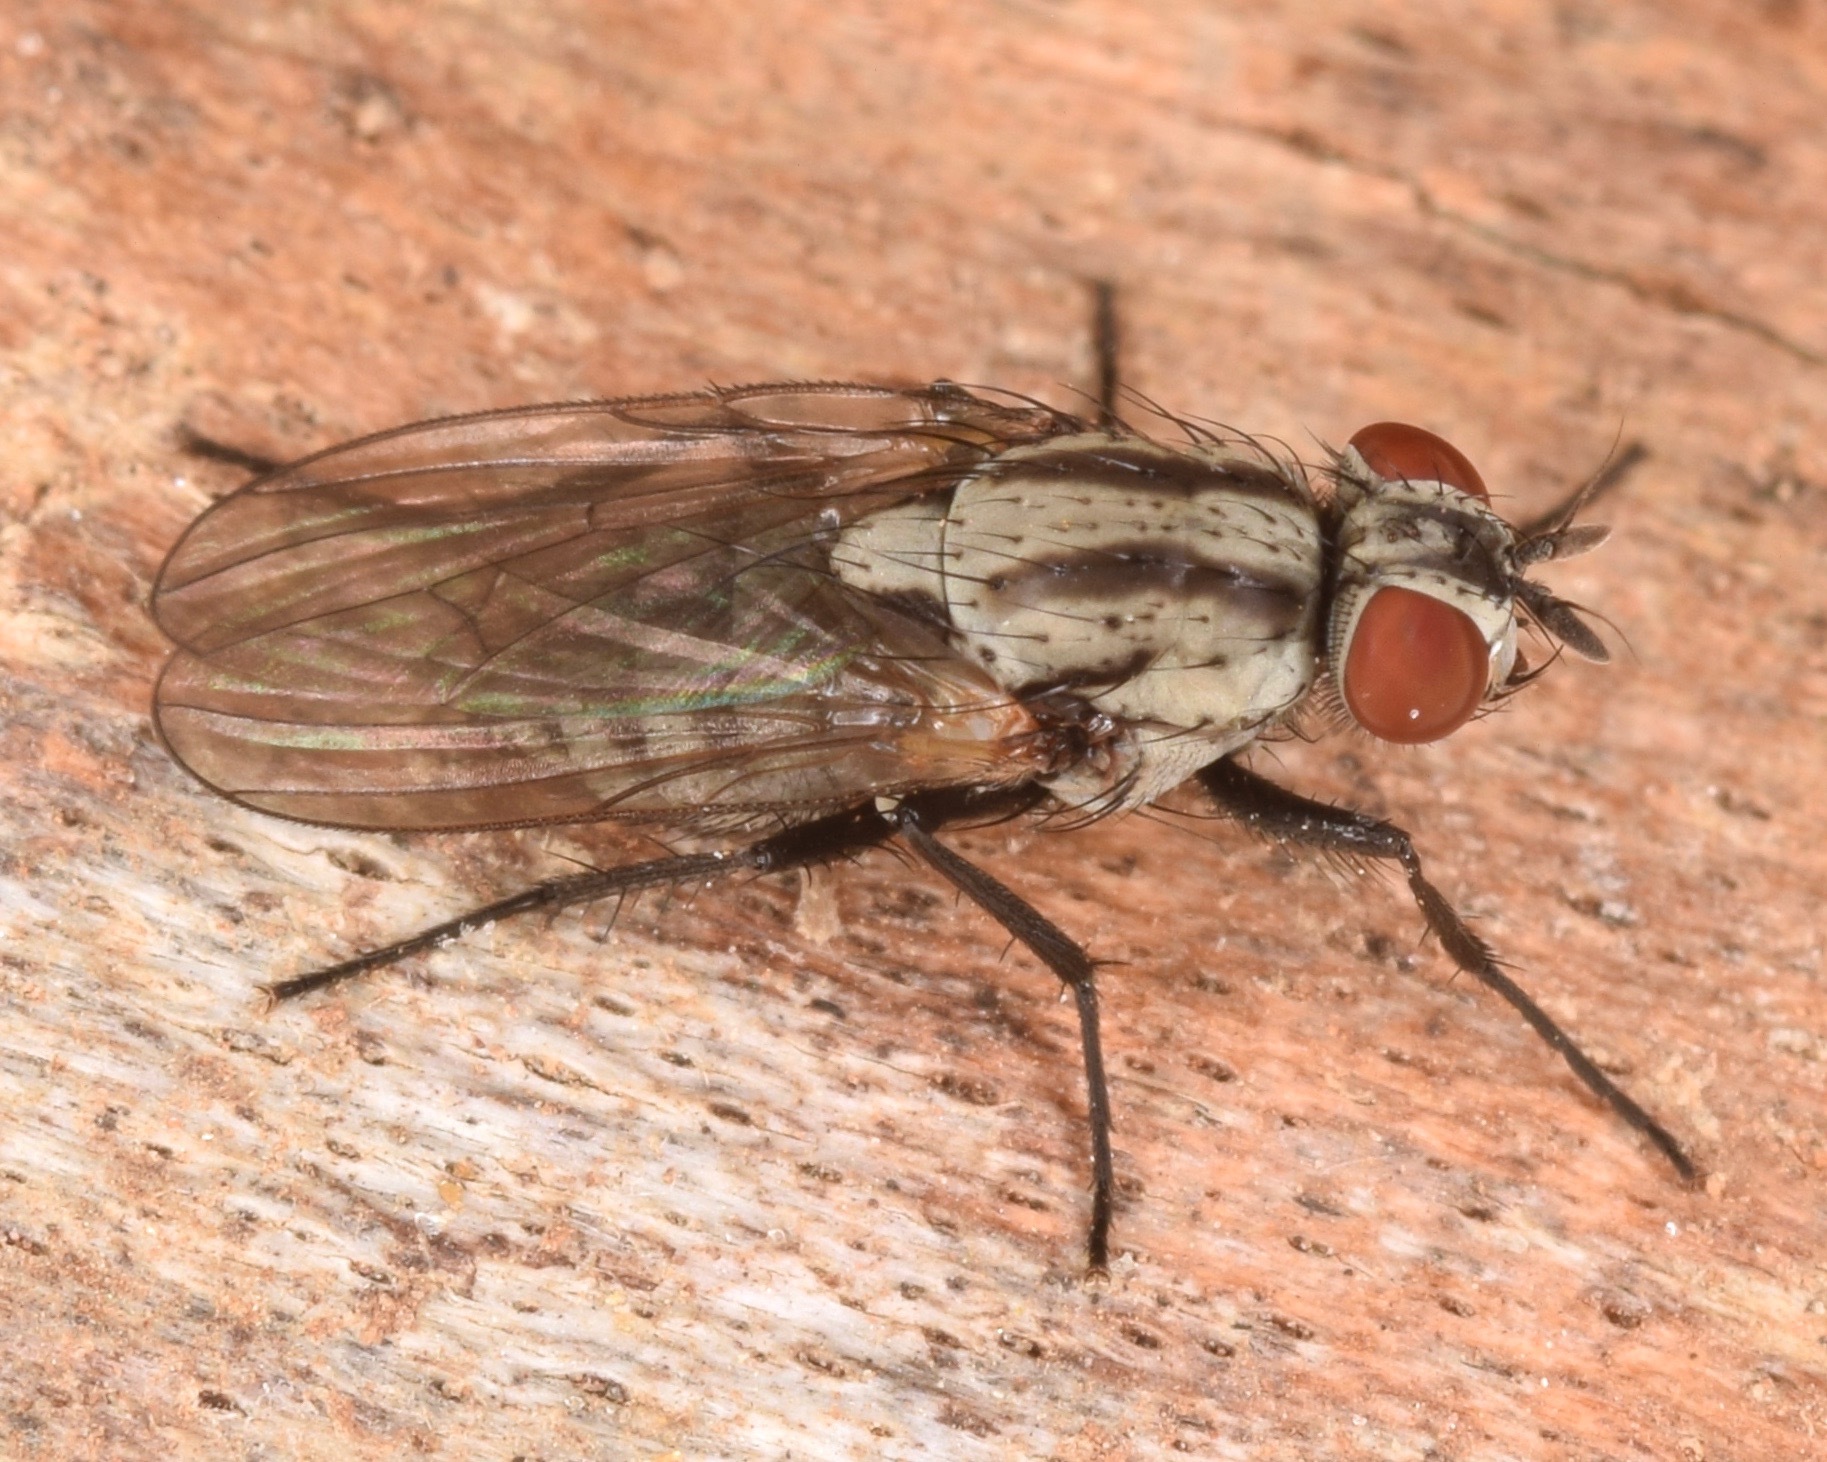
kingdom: Animalia
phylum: Arthropoda
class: Insecta
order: Diptera
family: Anthomyiidae
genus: Anthomyia
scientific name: Anthomyia oculifera
